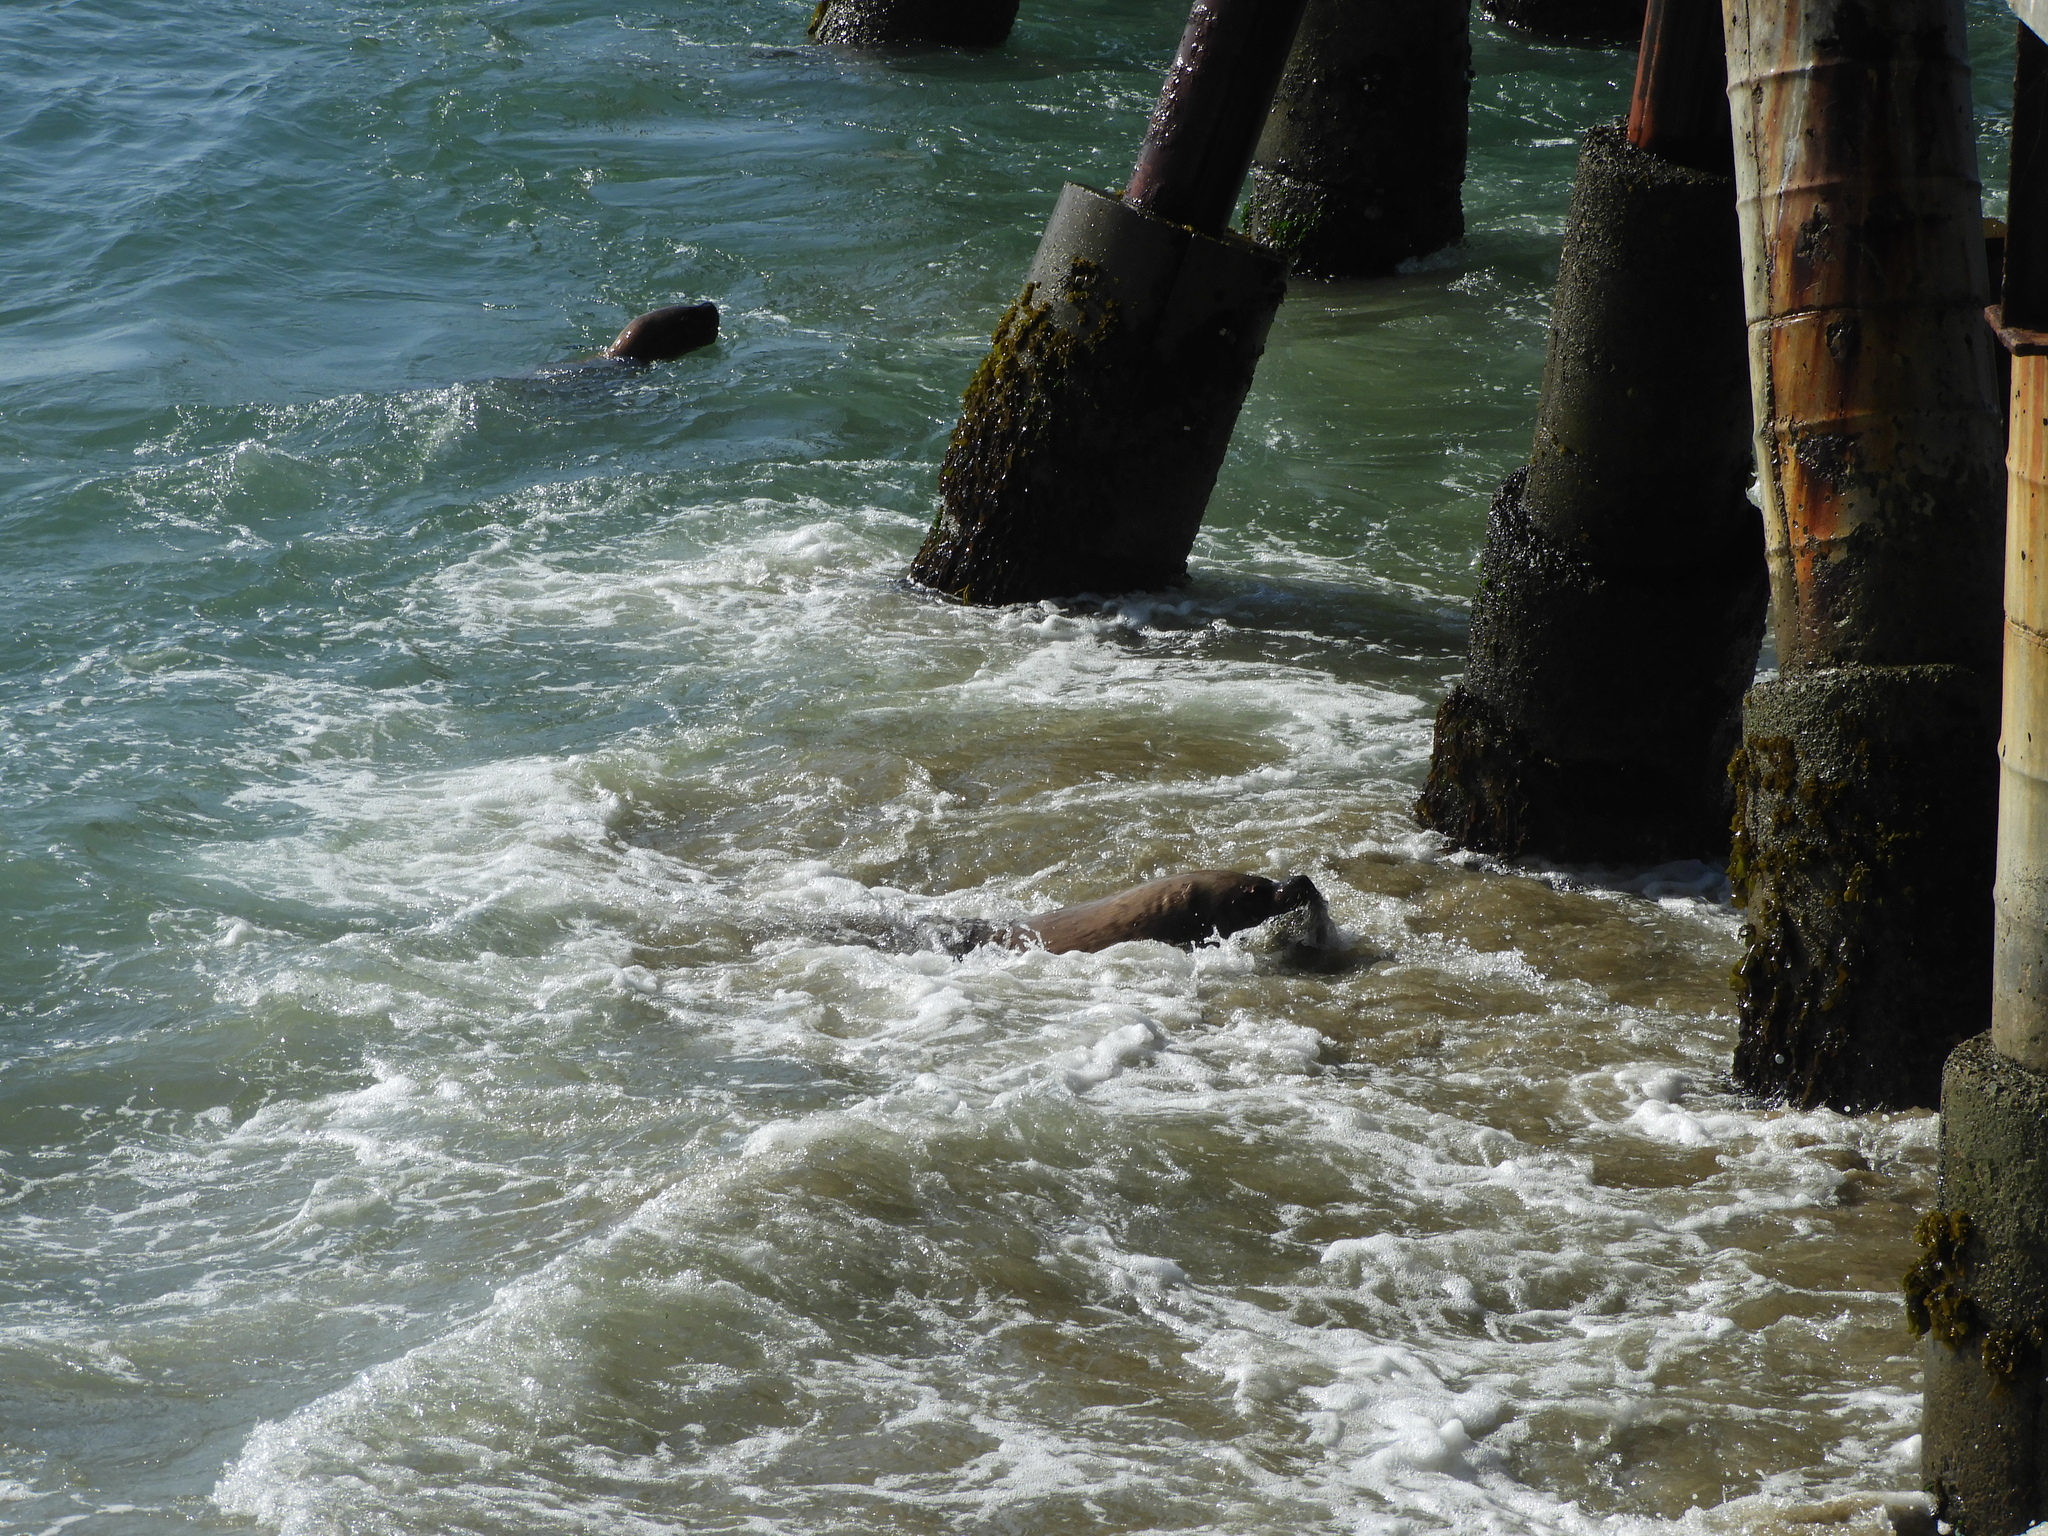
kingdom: Animalia
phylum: Chordata
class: Mammalia
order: Carnivora
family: Otariidae
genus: Otaria
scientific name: Otaria byronia
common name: South american sea lion
